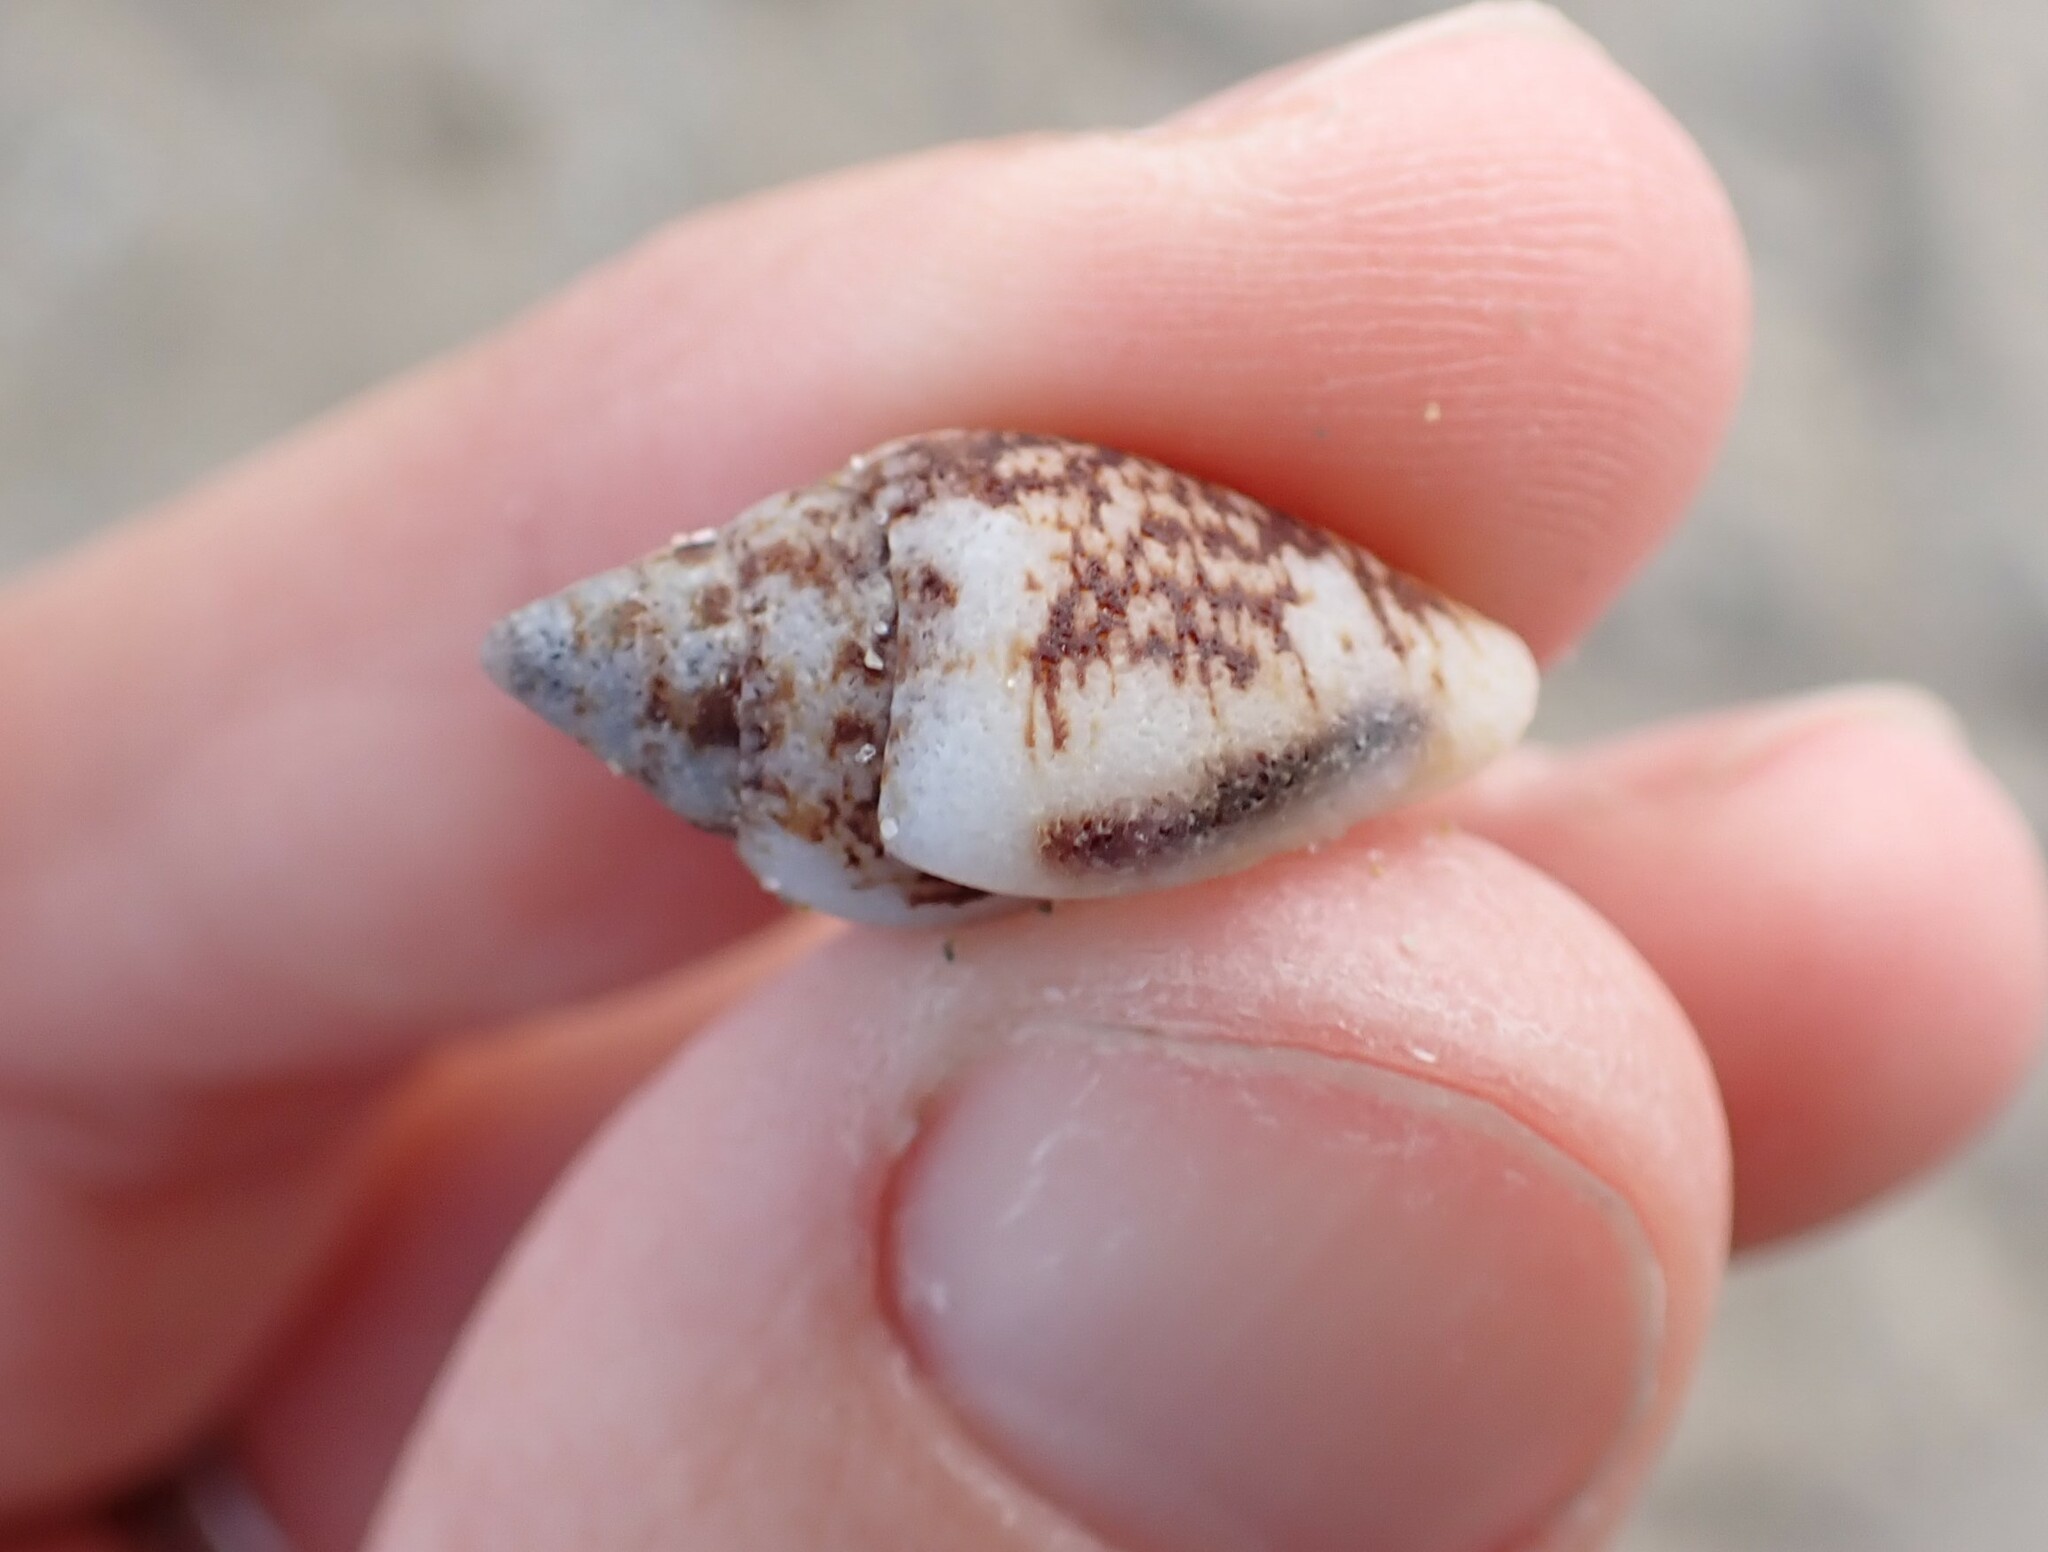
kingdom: Animalia
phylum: Mollusca
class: Gastropoda
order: Neogastropoda
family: Columbellidae
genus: Columbella
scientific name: Columbella rustica
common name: Rustic dove shell
